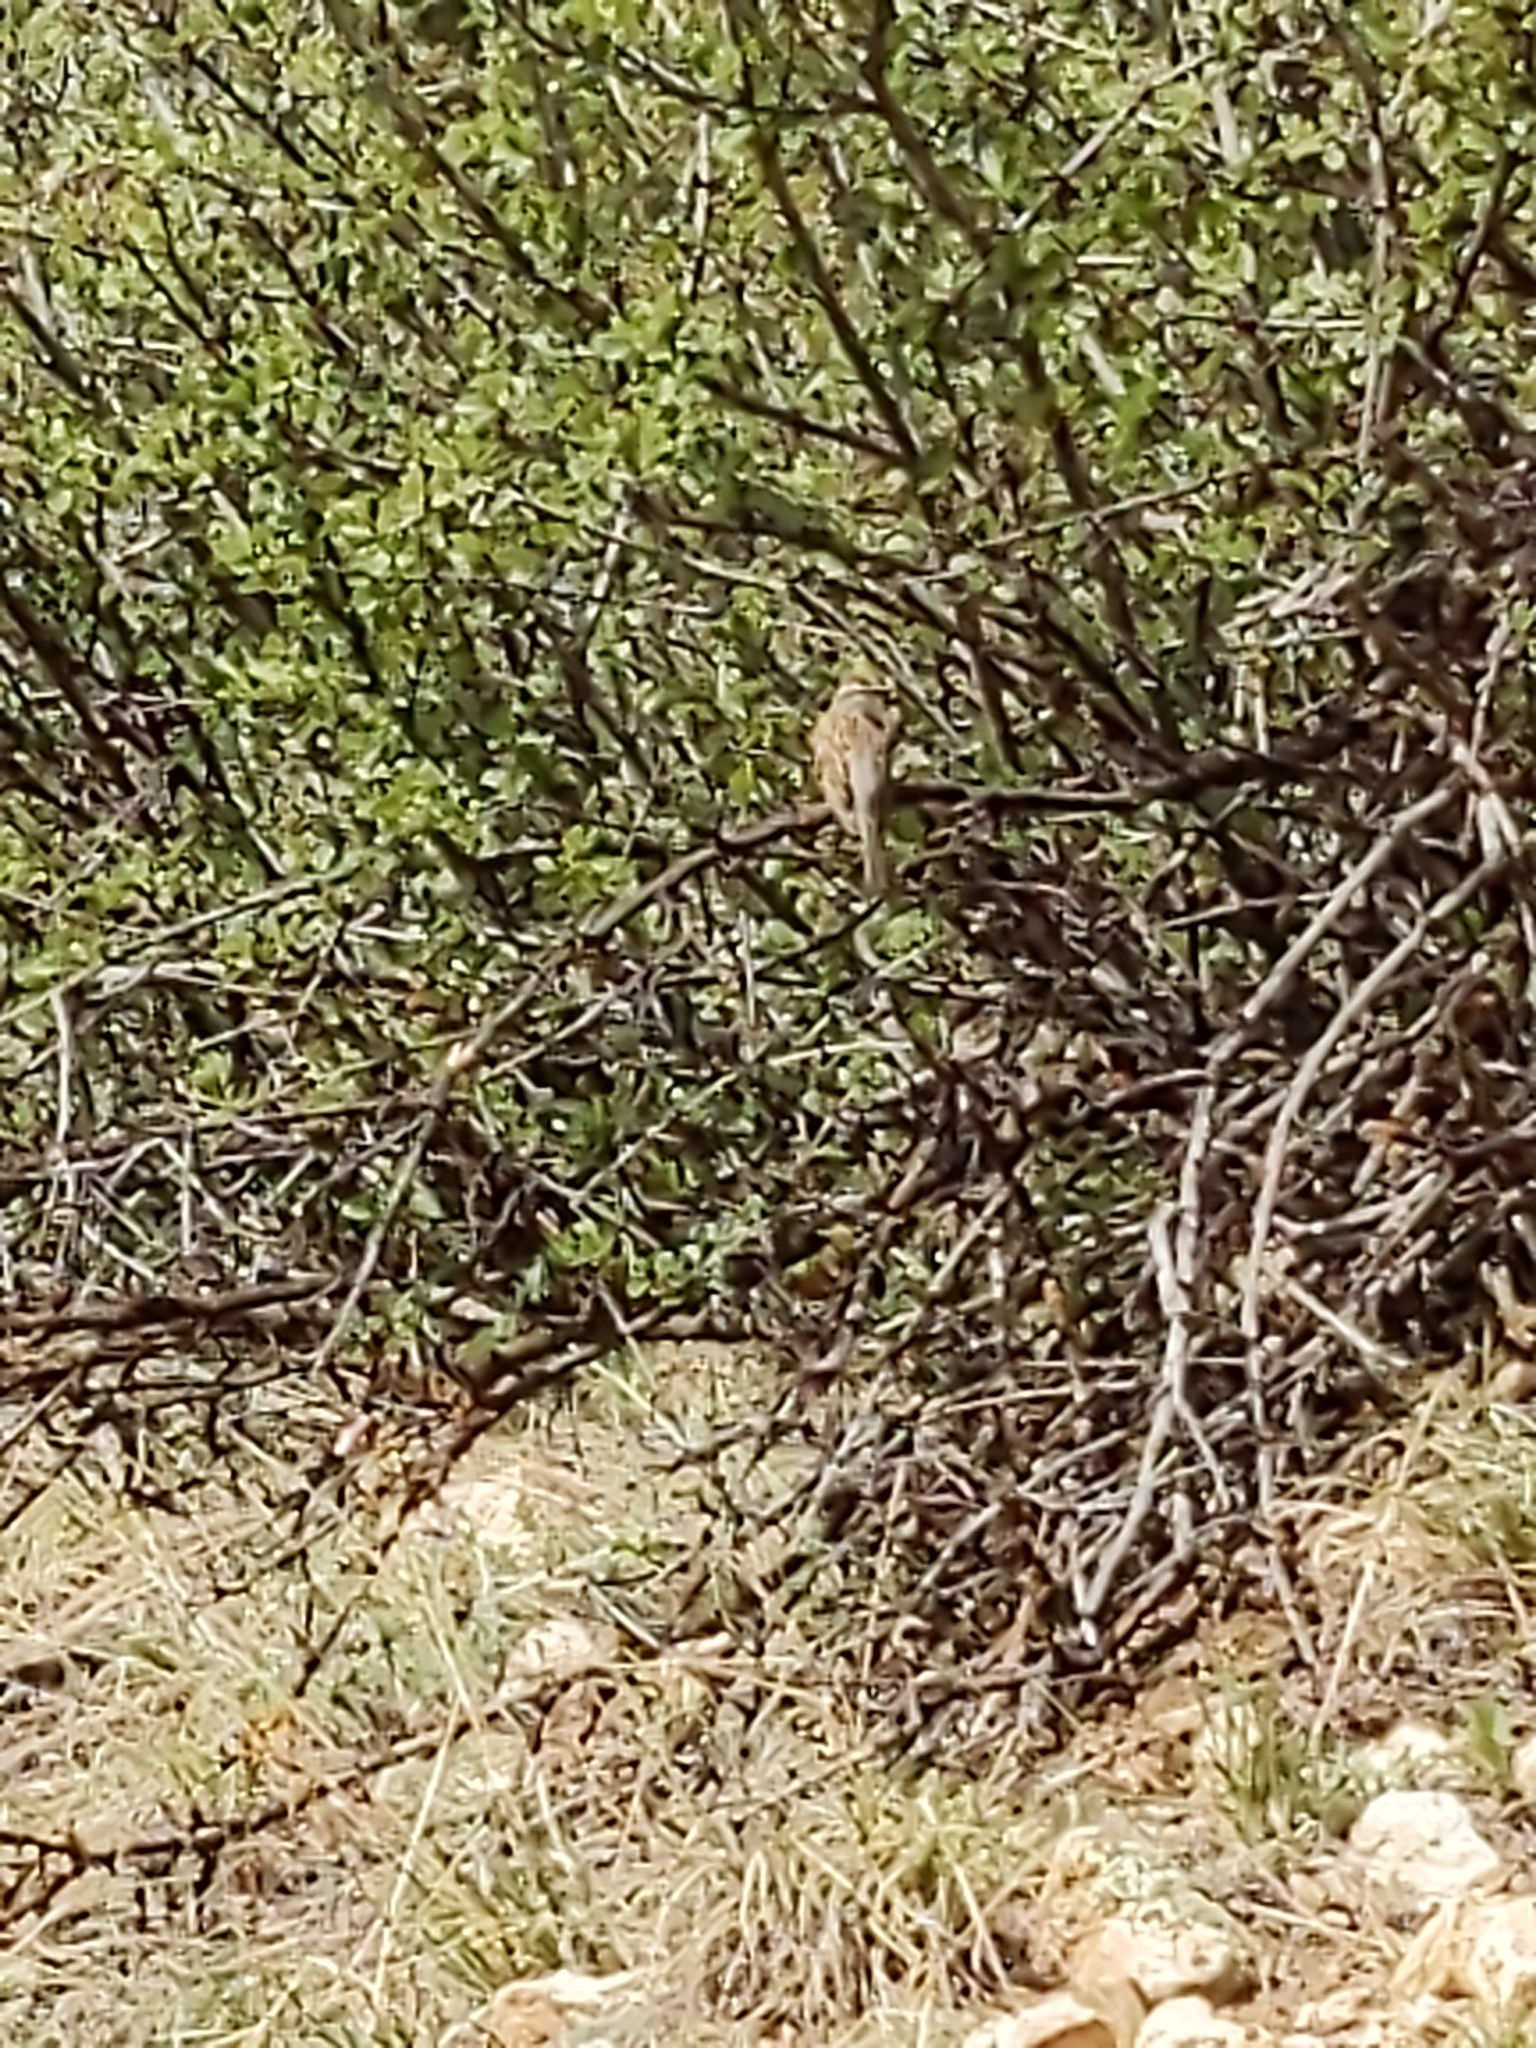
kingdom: Animalia
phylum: Chordata
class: Aves
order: Passeriformes
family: Passerellidae
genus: Spizella
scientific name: Spizella passerina
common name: Chipping sparrow
